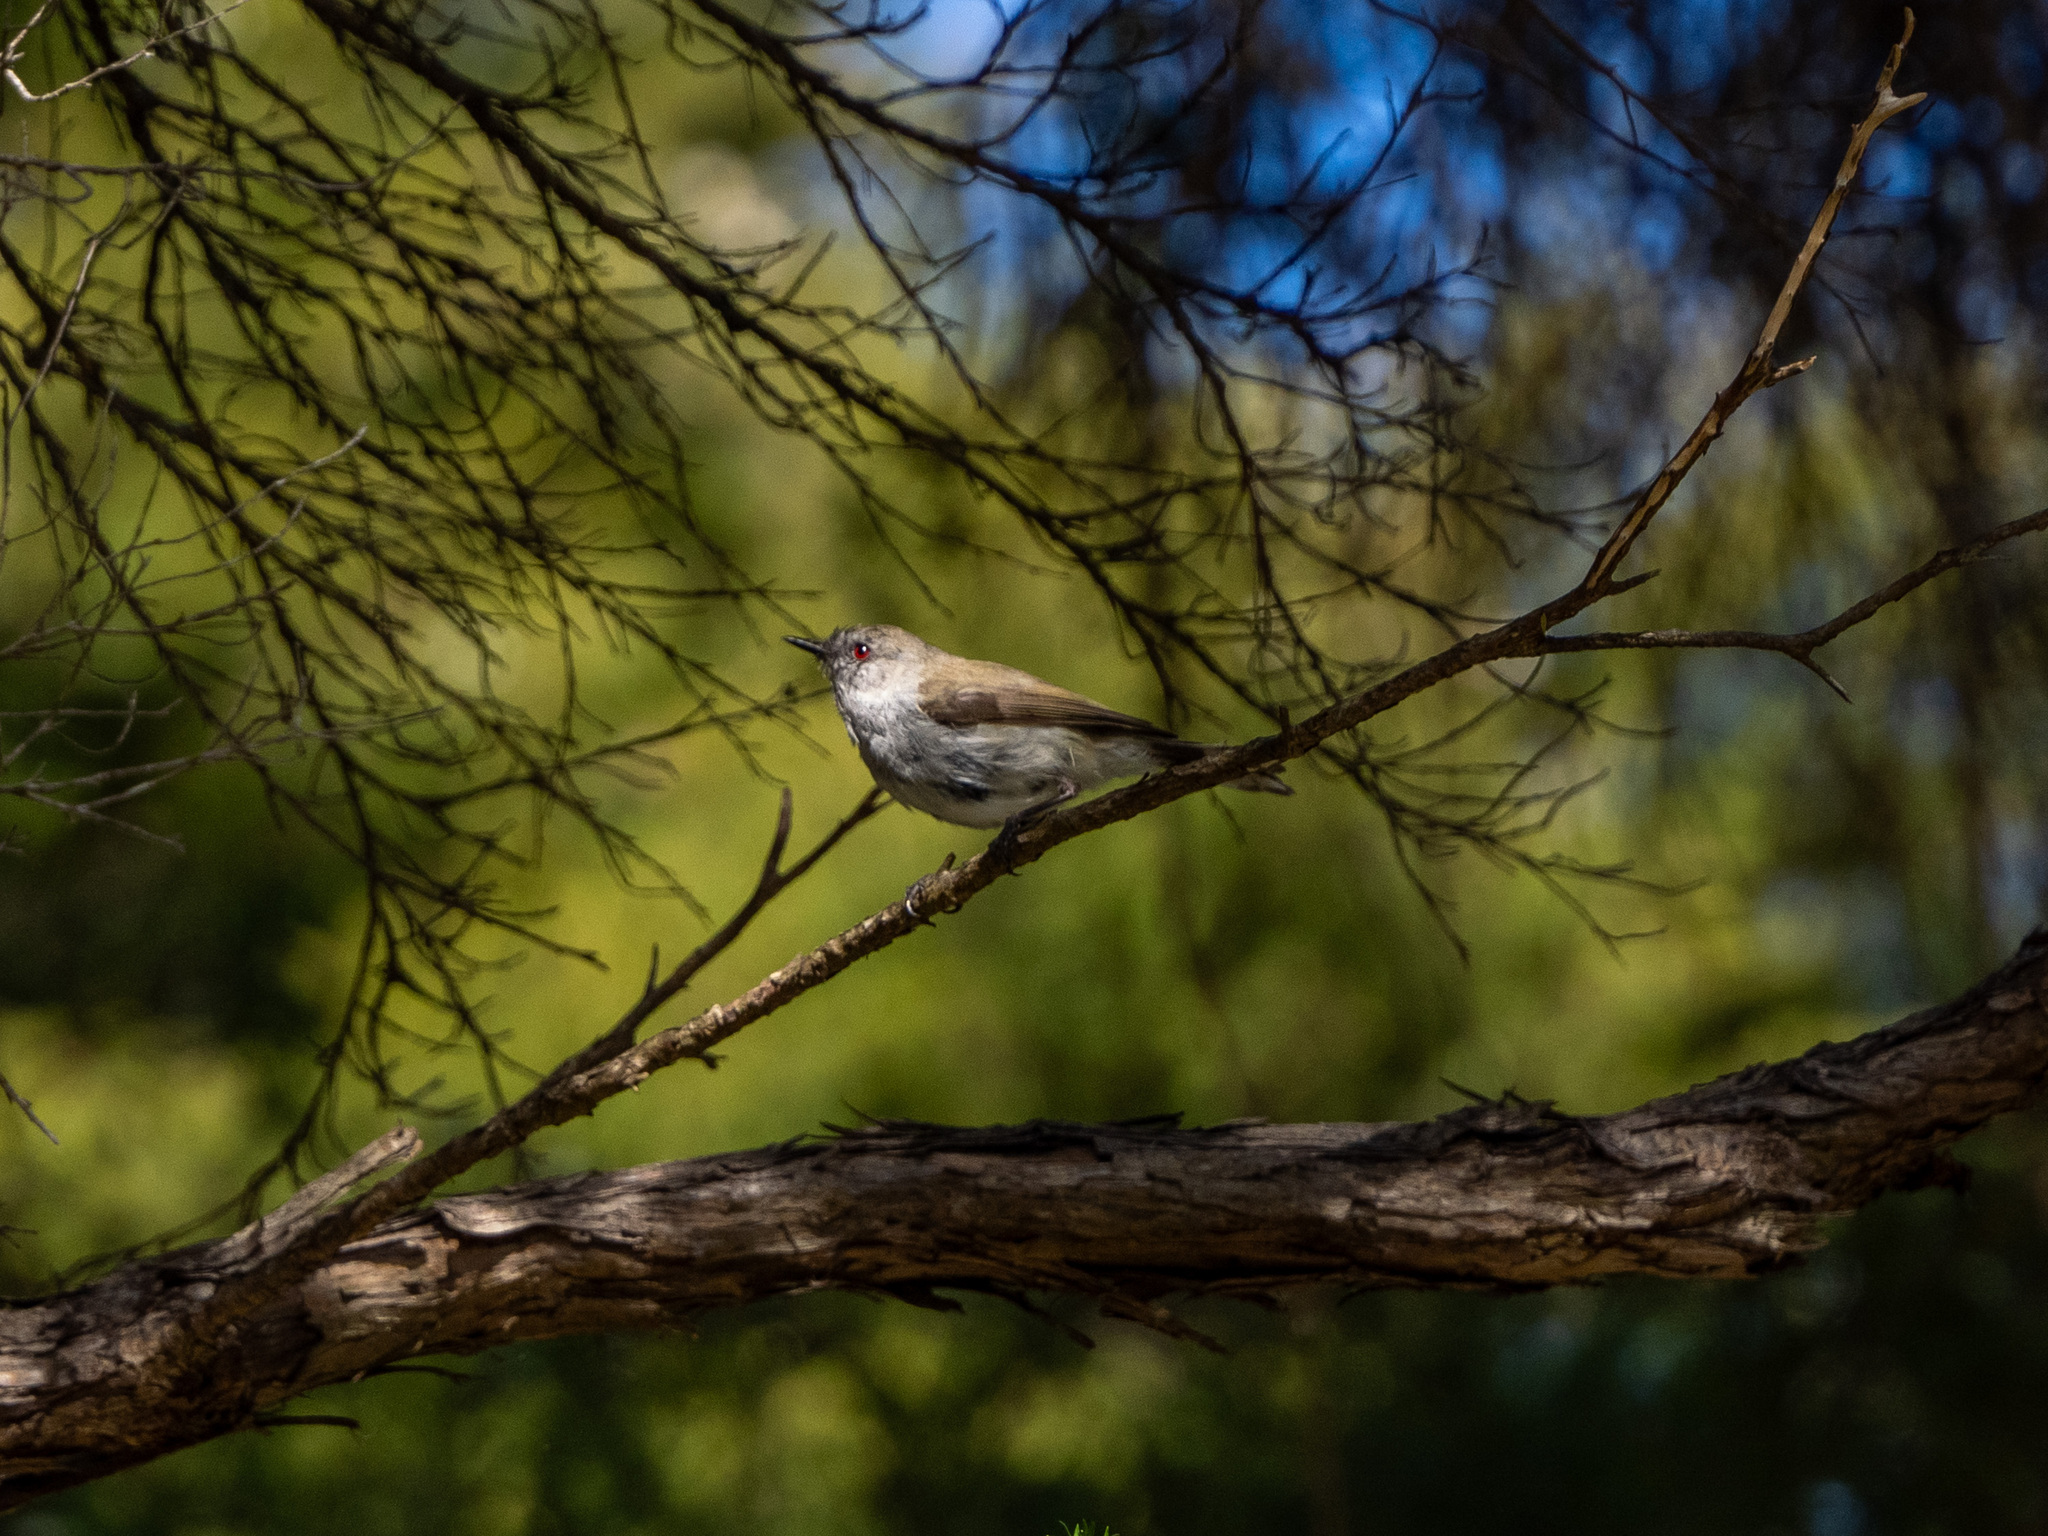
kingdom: Animalia
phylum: Chordata
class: Aves
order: Passeriformes
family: Acanthizidae
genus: Gerygone
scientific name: Gerygone igata
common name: Grey gerygone
